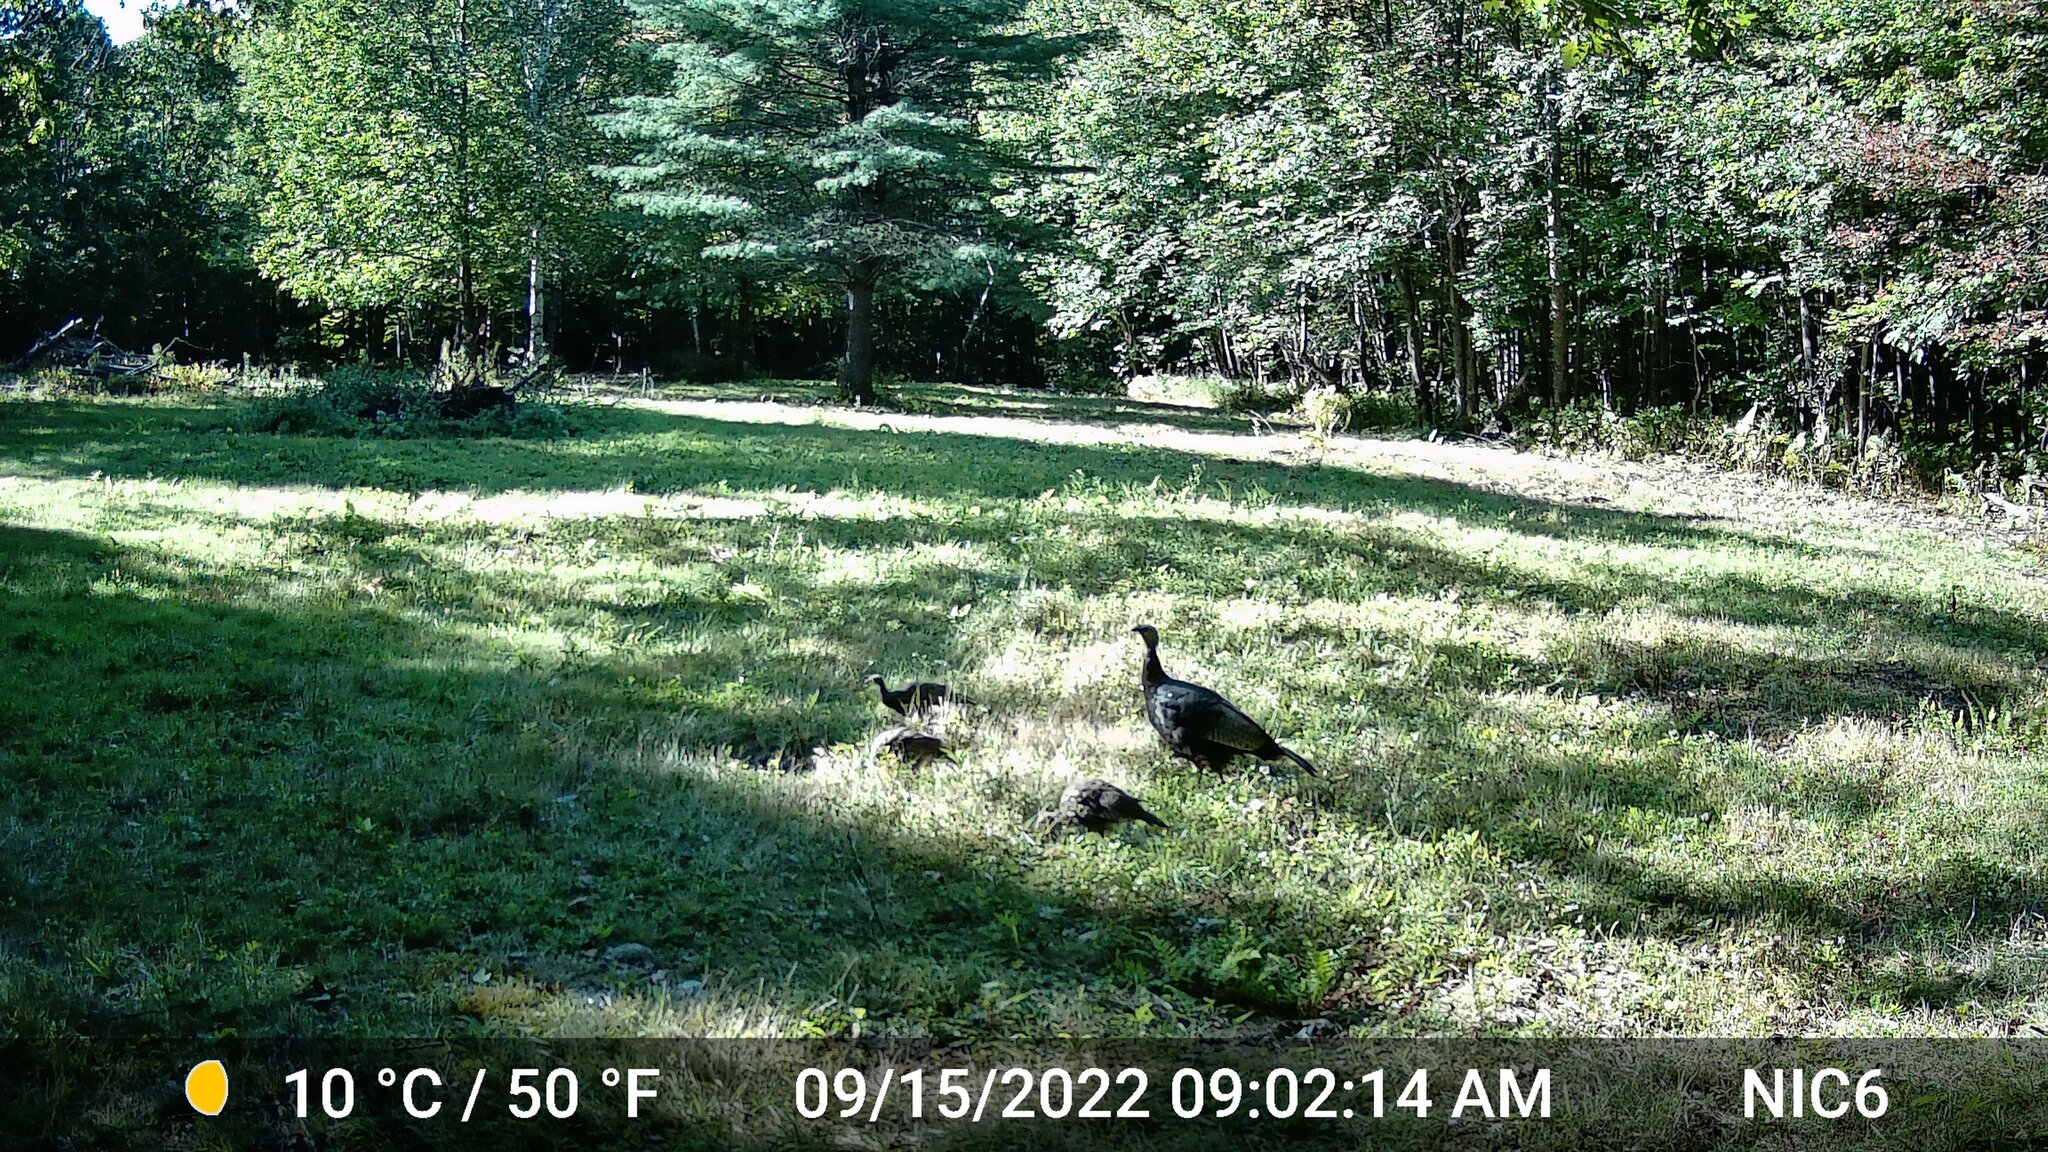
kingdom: Animalia
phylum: Chordata
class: Aves
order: Galliformes
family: Phasianidae
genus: Meleagris
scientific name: Meleagris gallopavo
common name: Wild turkey
